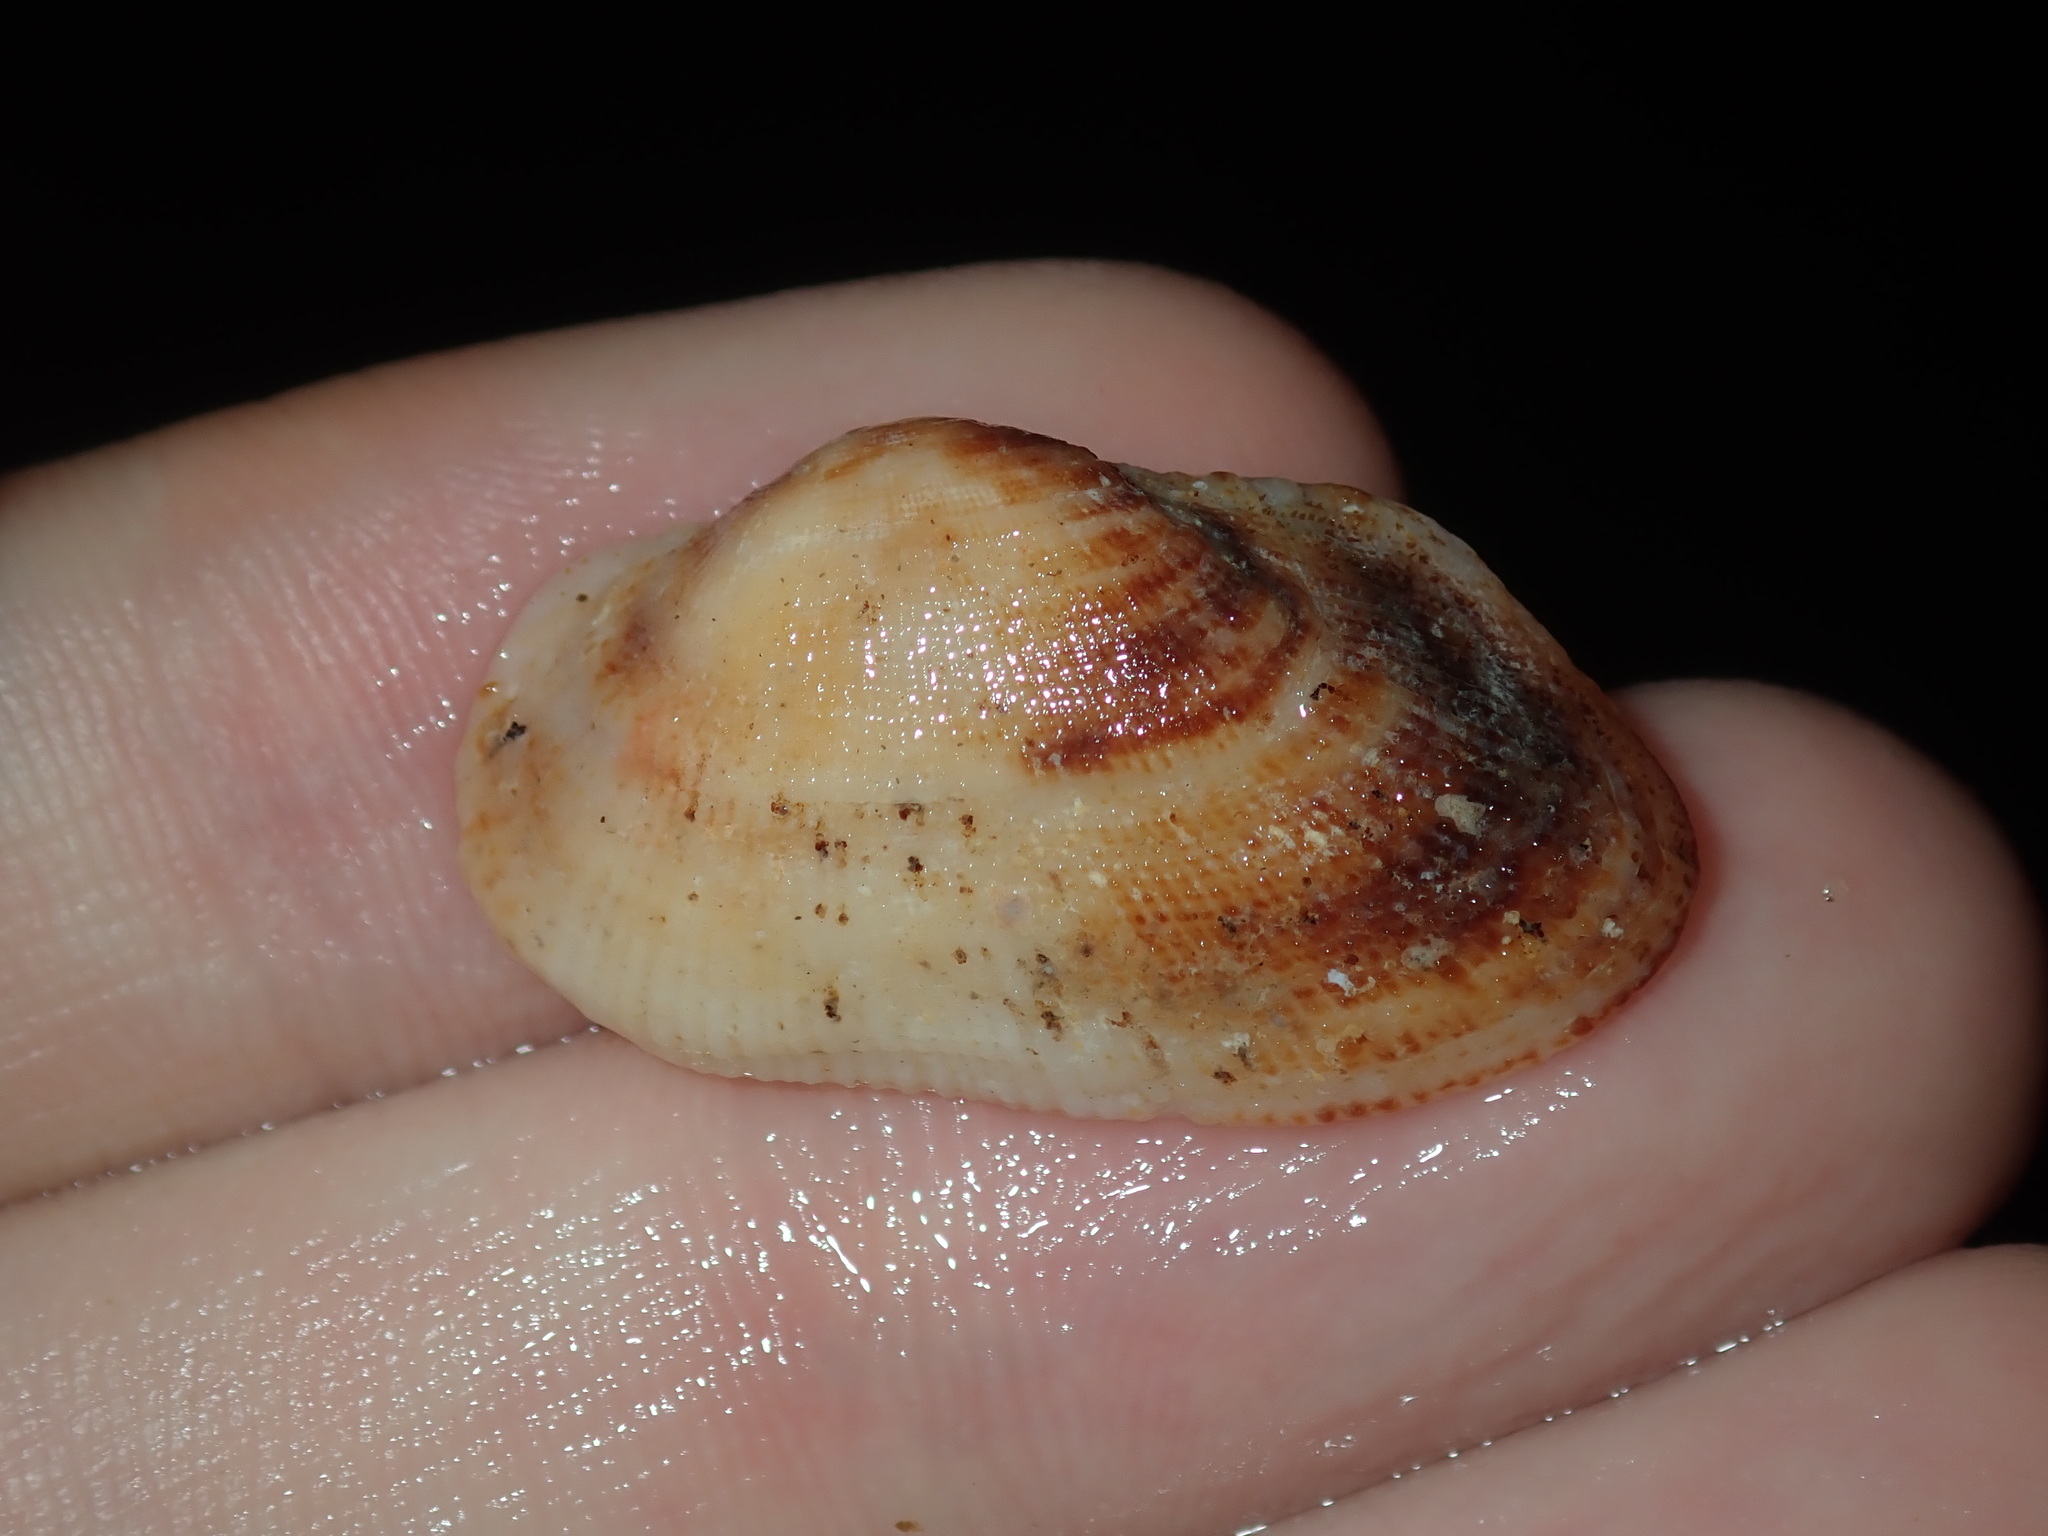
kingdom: Animalia
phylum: Mollusca
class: Bivalvia
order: Arcida
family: Arcidae
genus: Barbatia
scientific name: Barbatia pistachia
